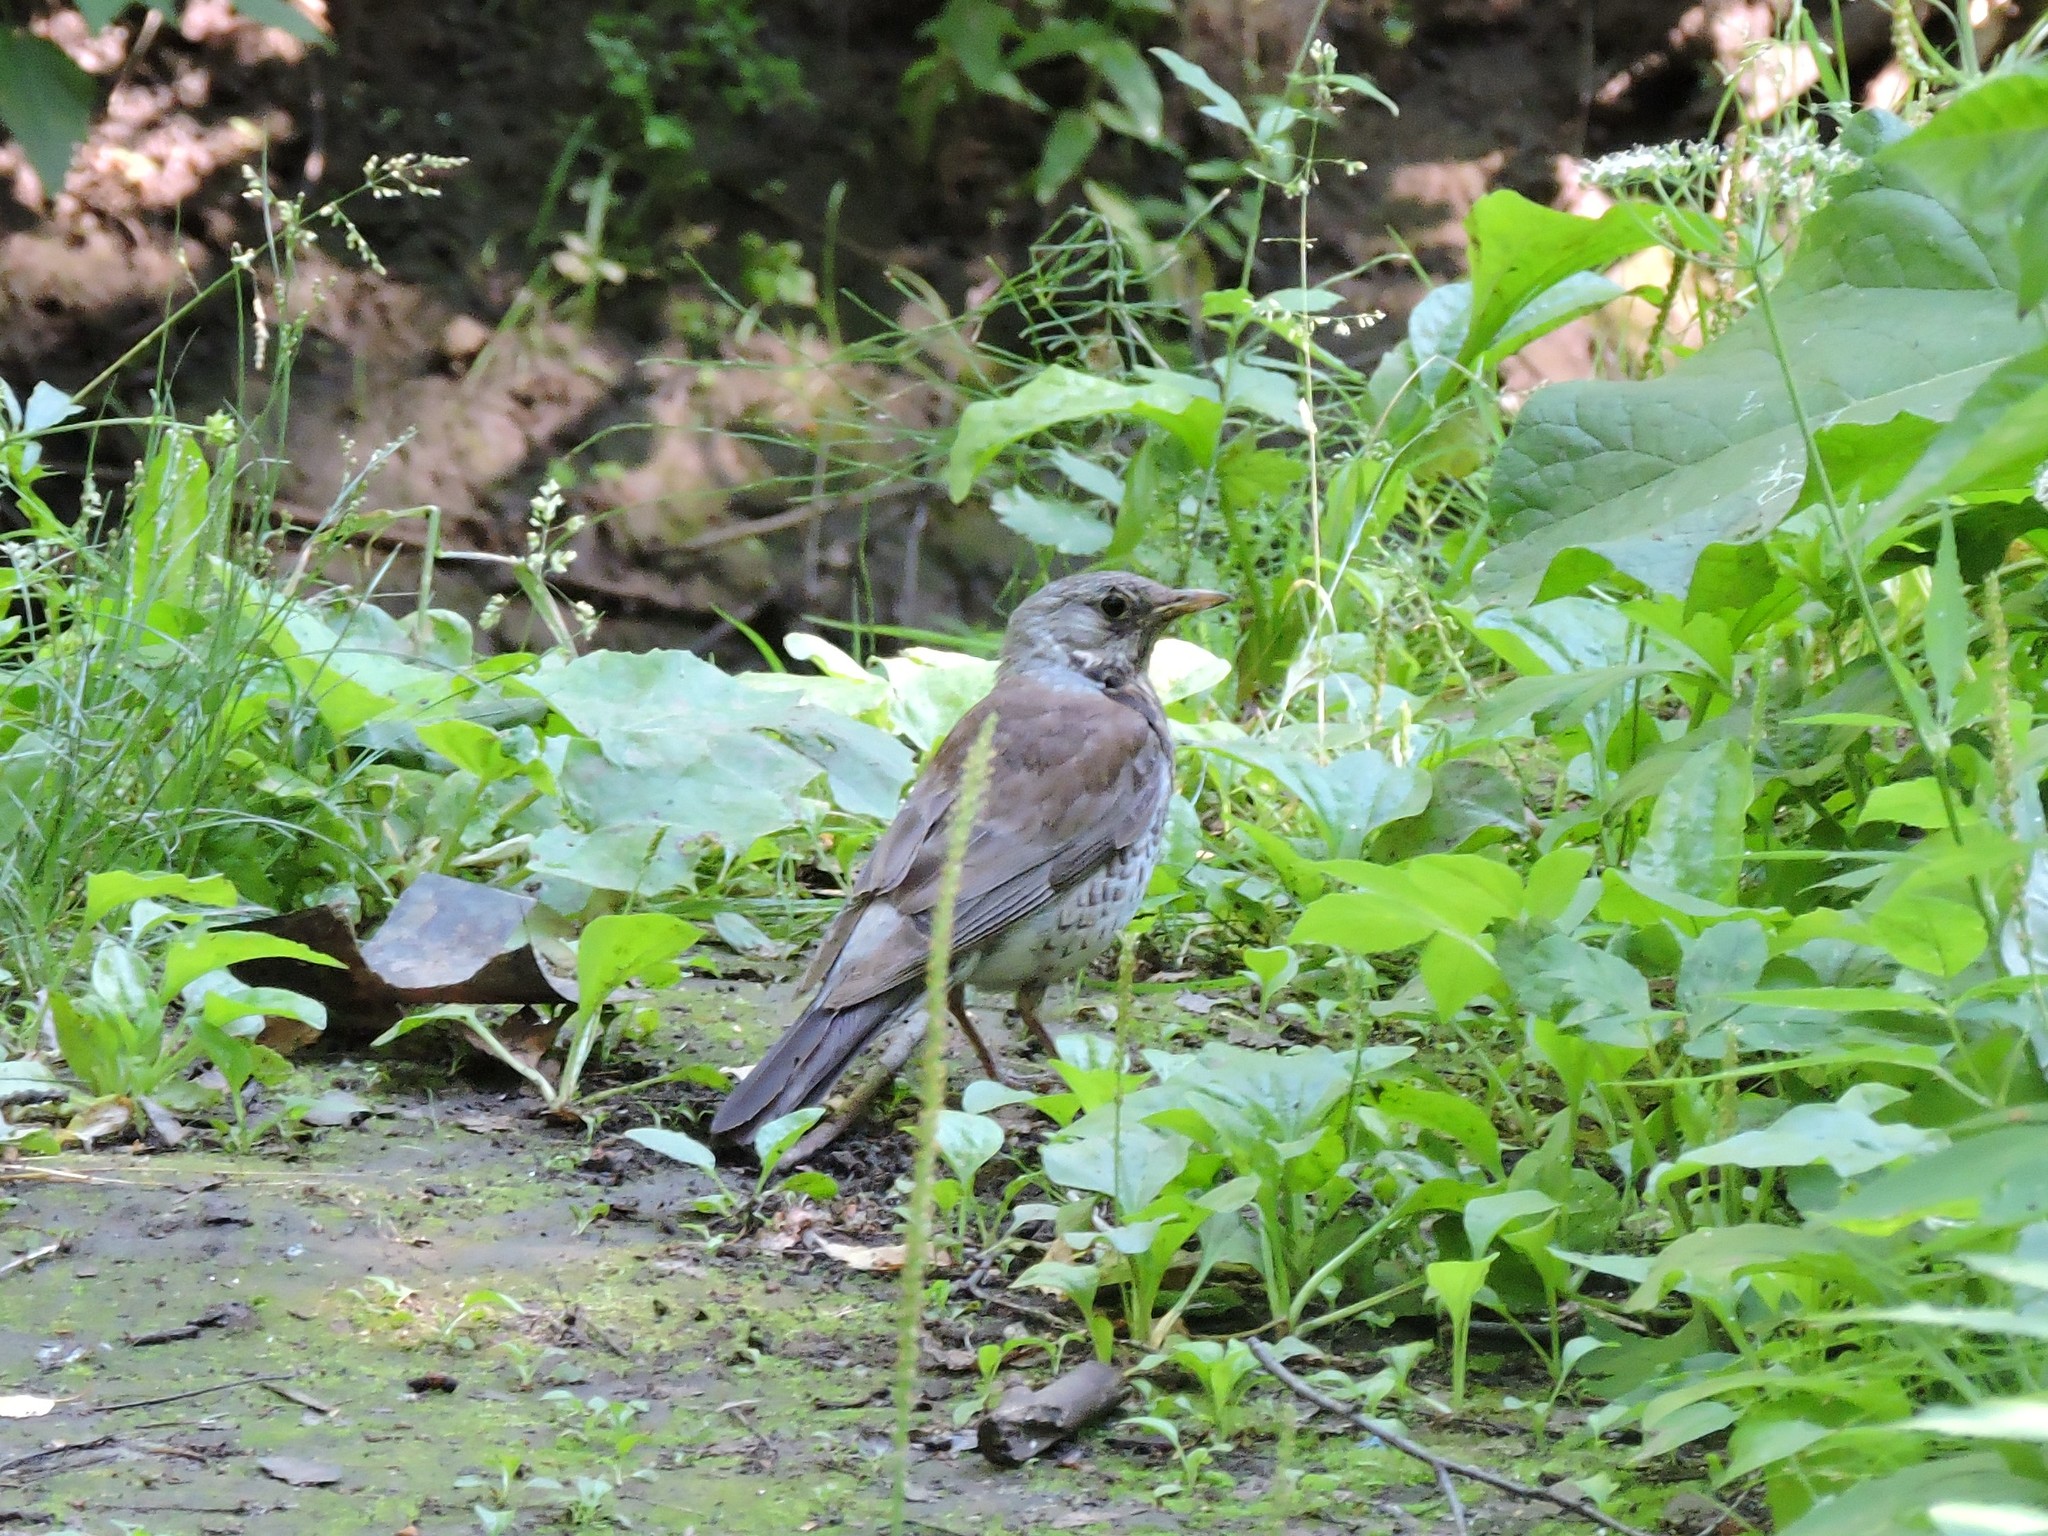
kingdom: Animalia
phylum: Chordata
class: Aves
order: Passeriformes
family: Turdidae
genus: Turdus
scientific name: Turdus pilaris
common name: Fieldfare
